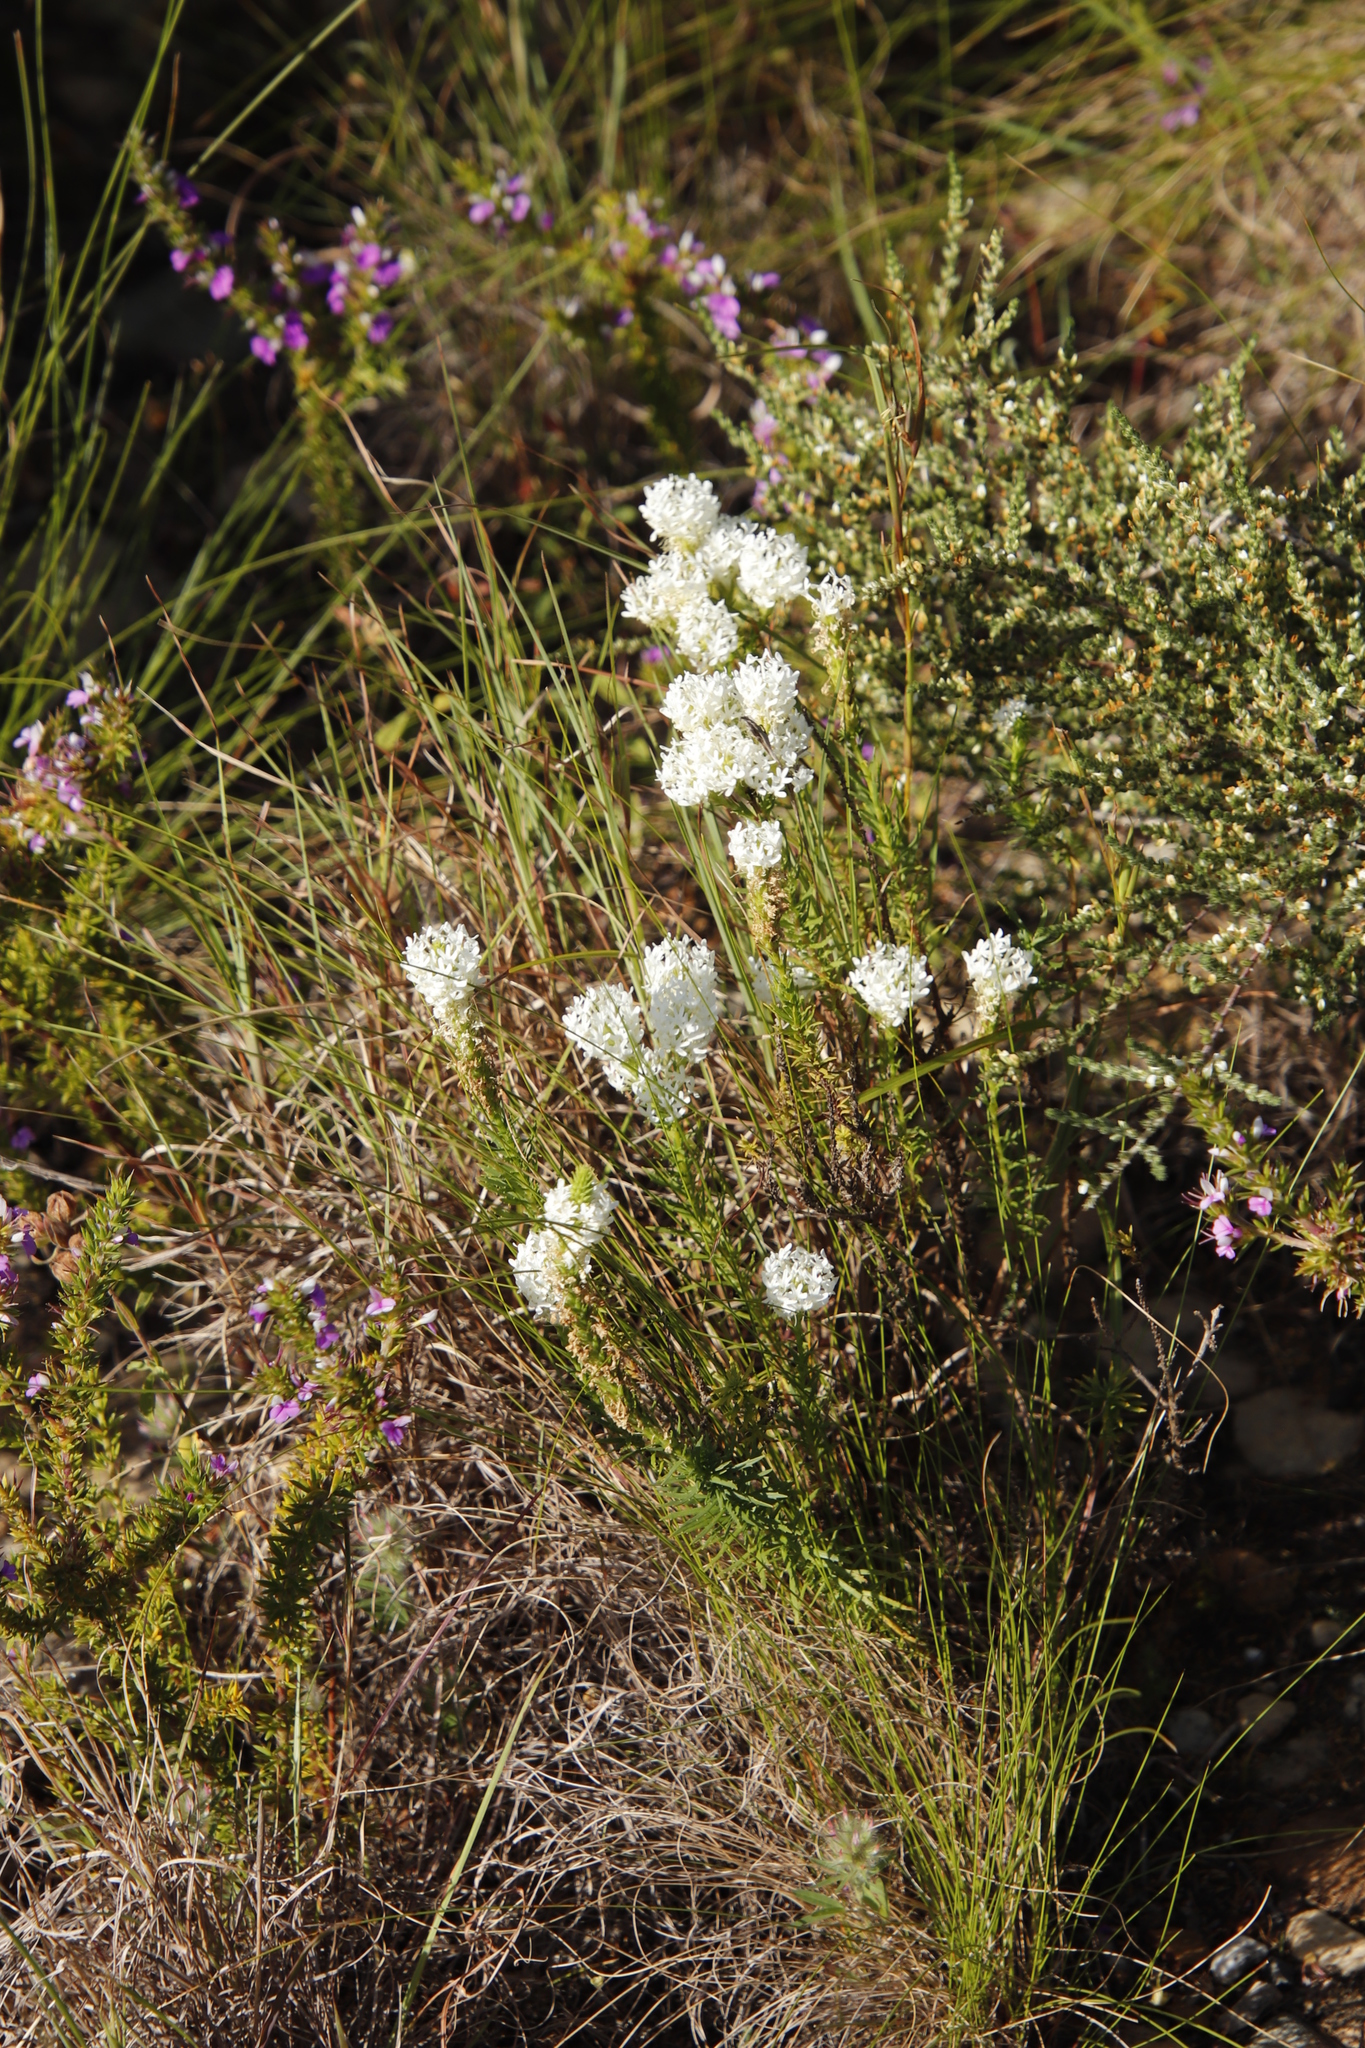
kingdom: Plantae
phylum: Tracheophyta
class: Magnoliopsida
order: Lamiales
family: Scrophulariaceae
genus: Dischisma
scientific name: Dischisma ciliatum
